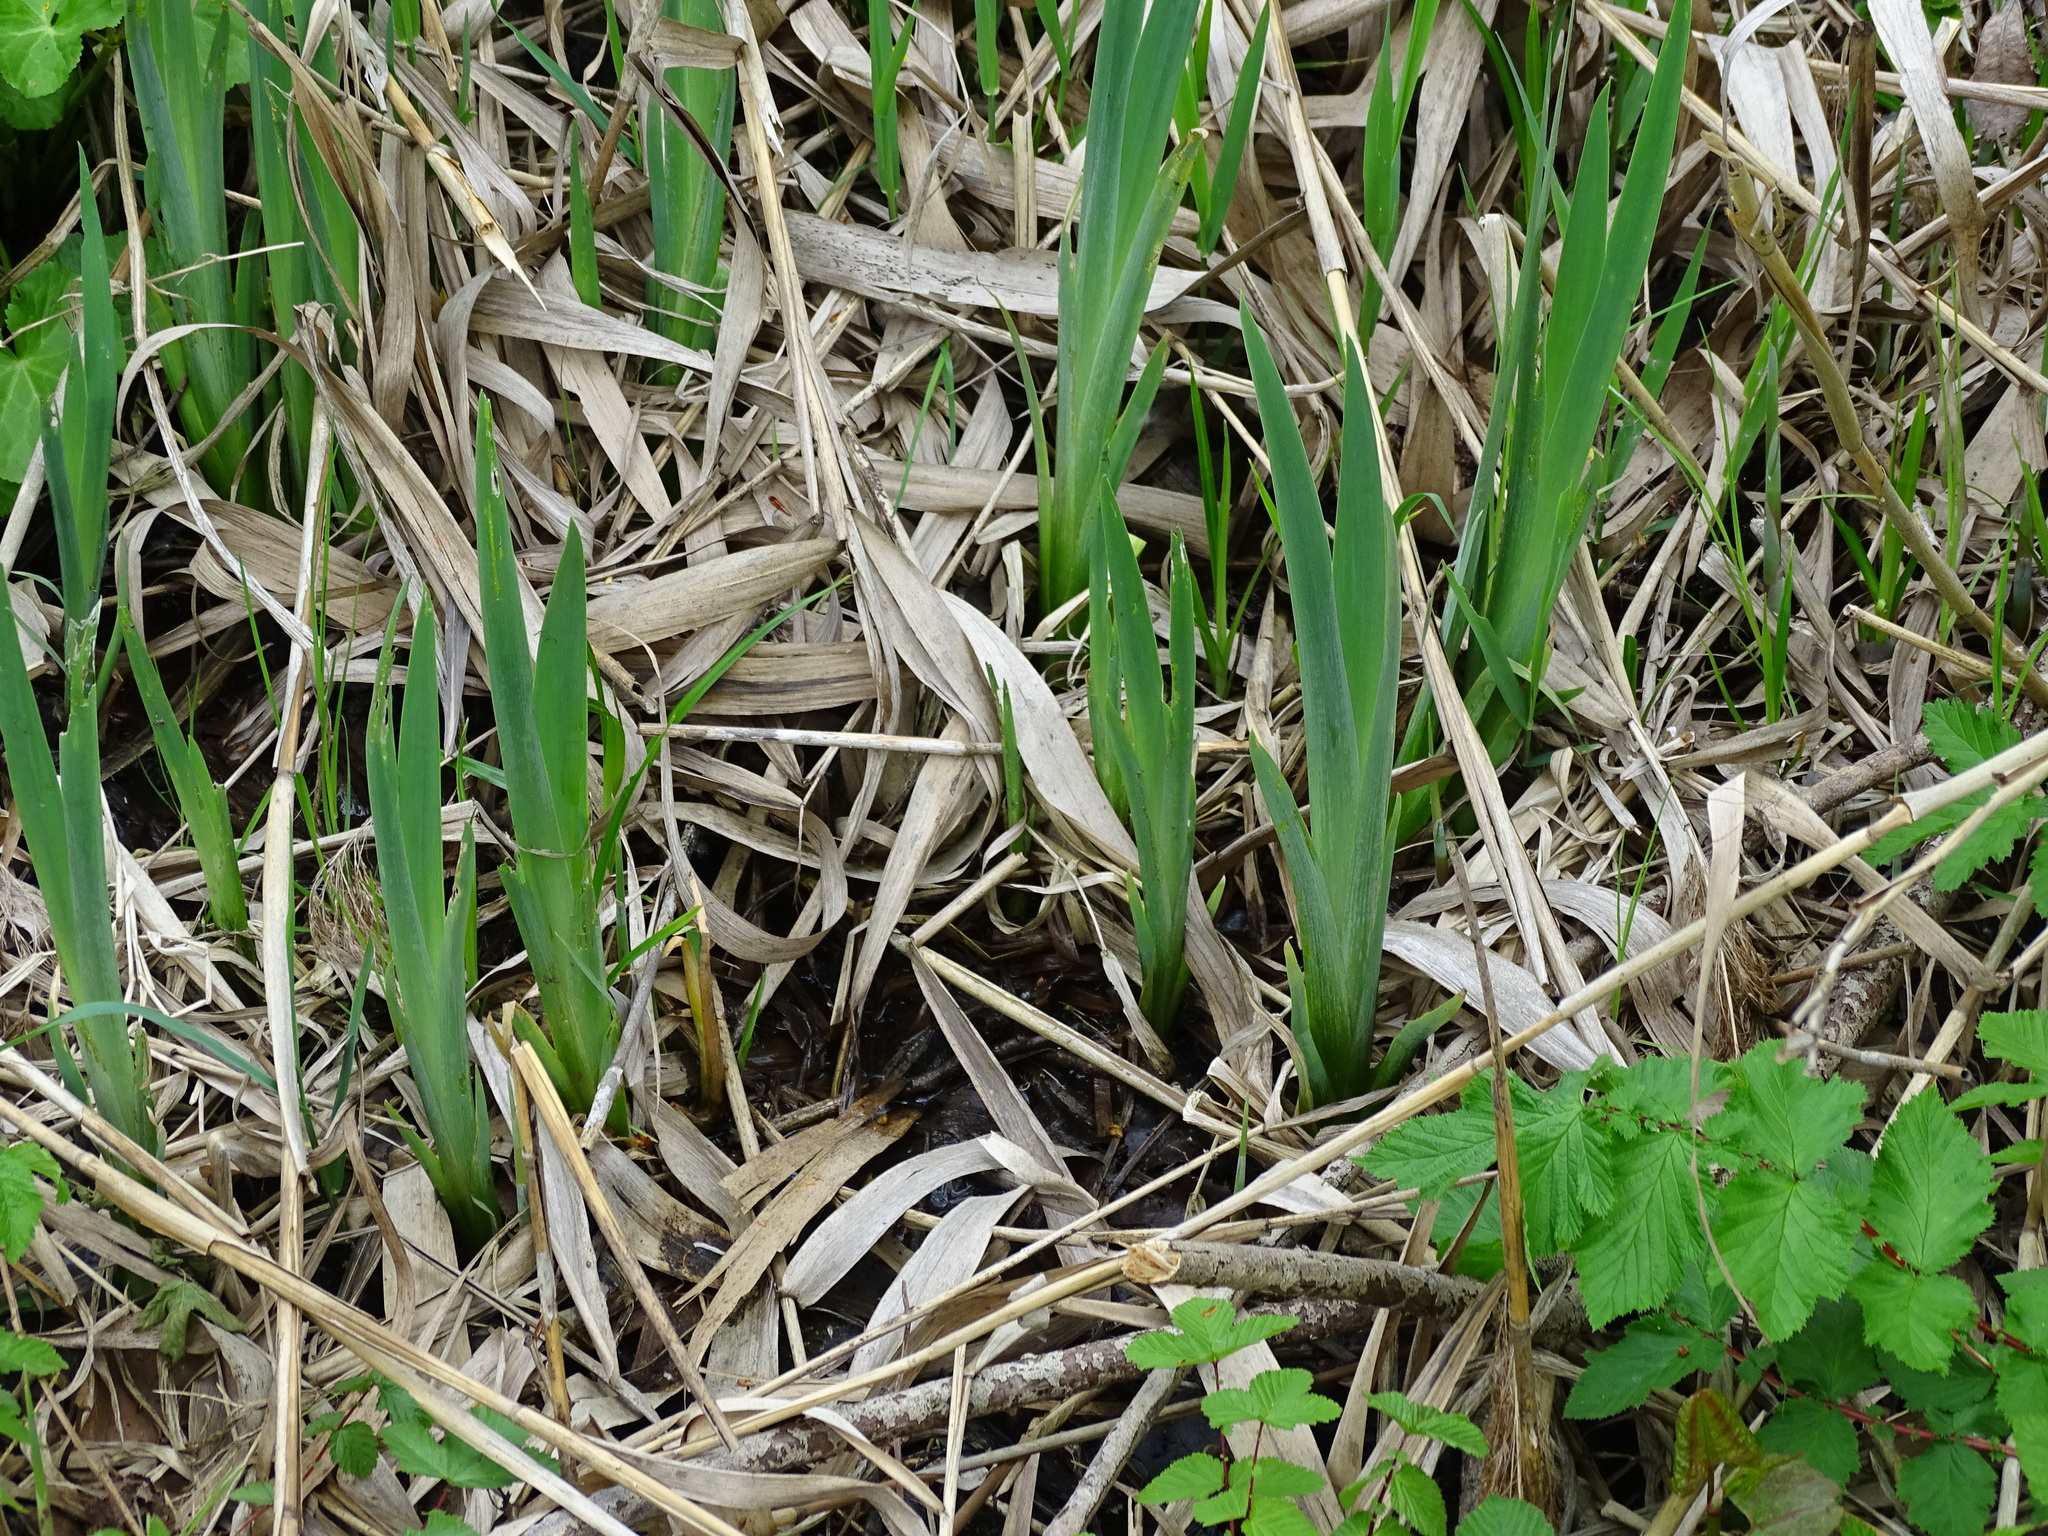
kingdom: Plantae
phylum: Tracheophyta
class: Liliopsida
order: Asparagales
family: Iridaceae
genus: Iris
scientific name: Iris pseudacorus
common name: Yellow flag
